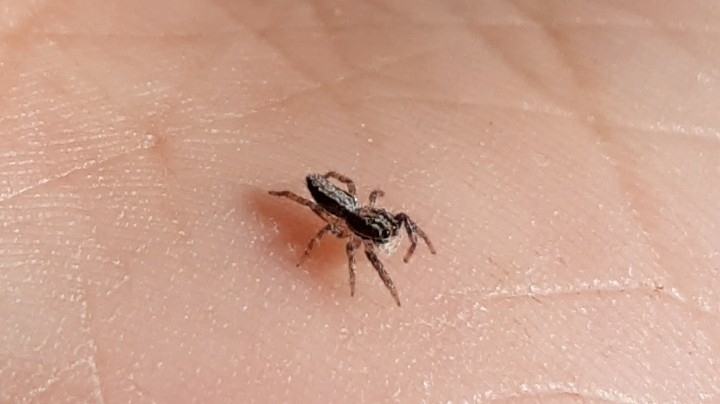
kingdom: Animalia
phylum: Arthropoda
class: Arachnida
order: Araneae
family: Salticidae
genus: Platycryptus
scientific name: Platycryptus californicus
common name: Jumping spiders
